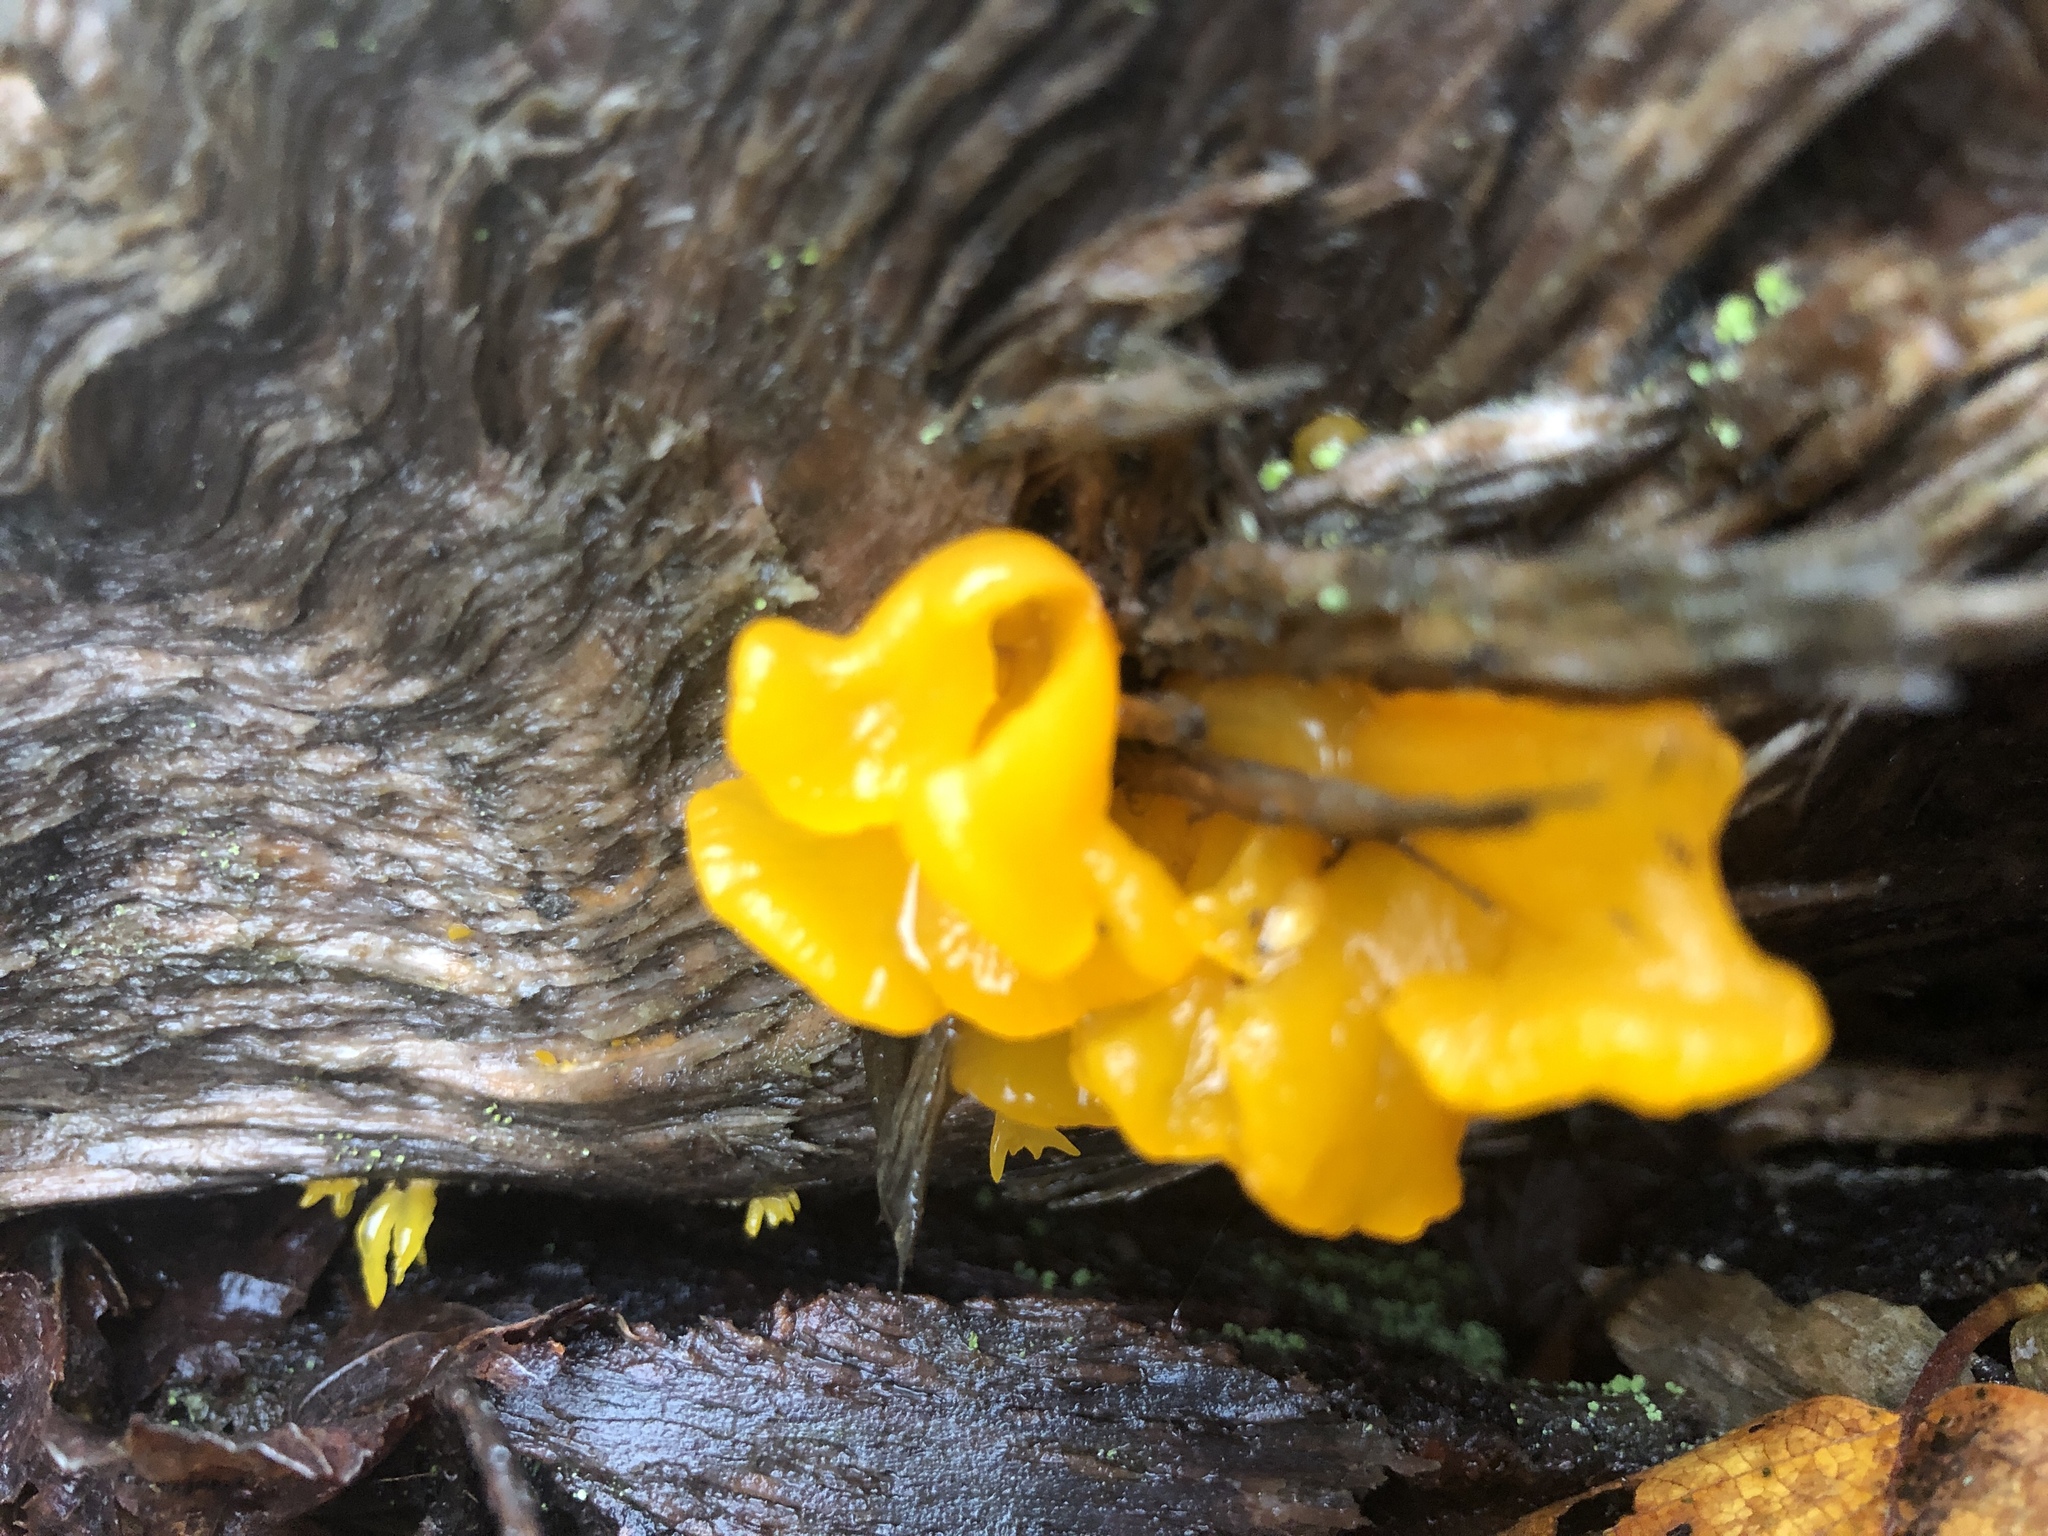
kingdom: Fungi
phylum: Basidiomycota
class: Dacrymycetes
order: Dacrymycetales
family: Dacrymycetaceae
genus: Dacrymyces
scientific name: Dacrymyces chrysospermus
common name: Orange jelly spot
